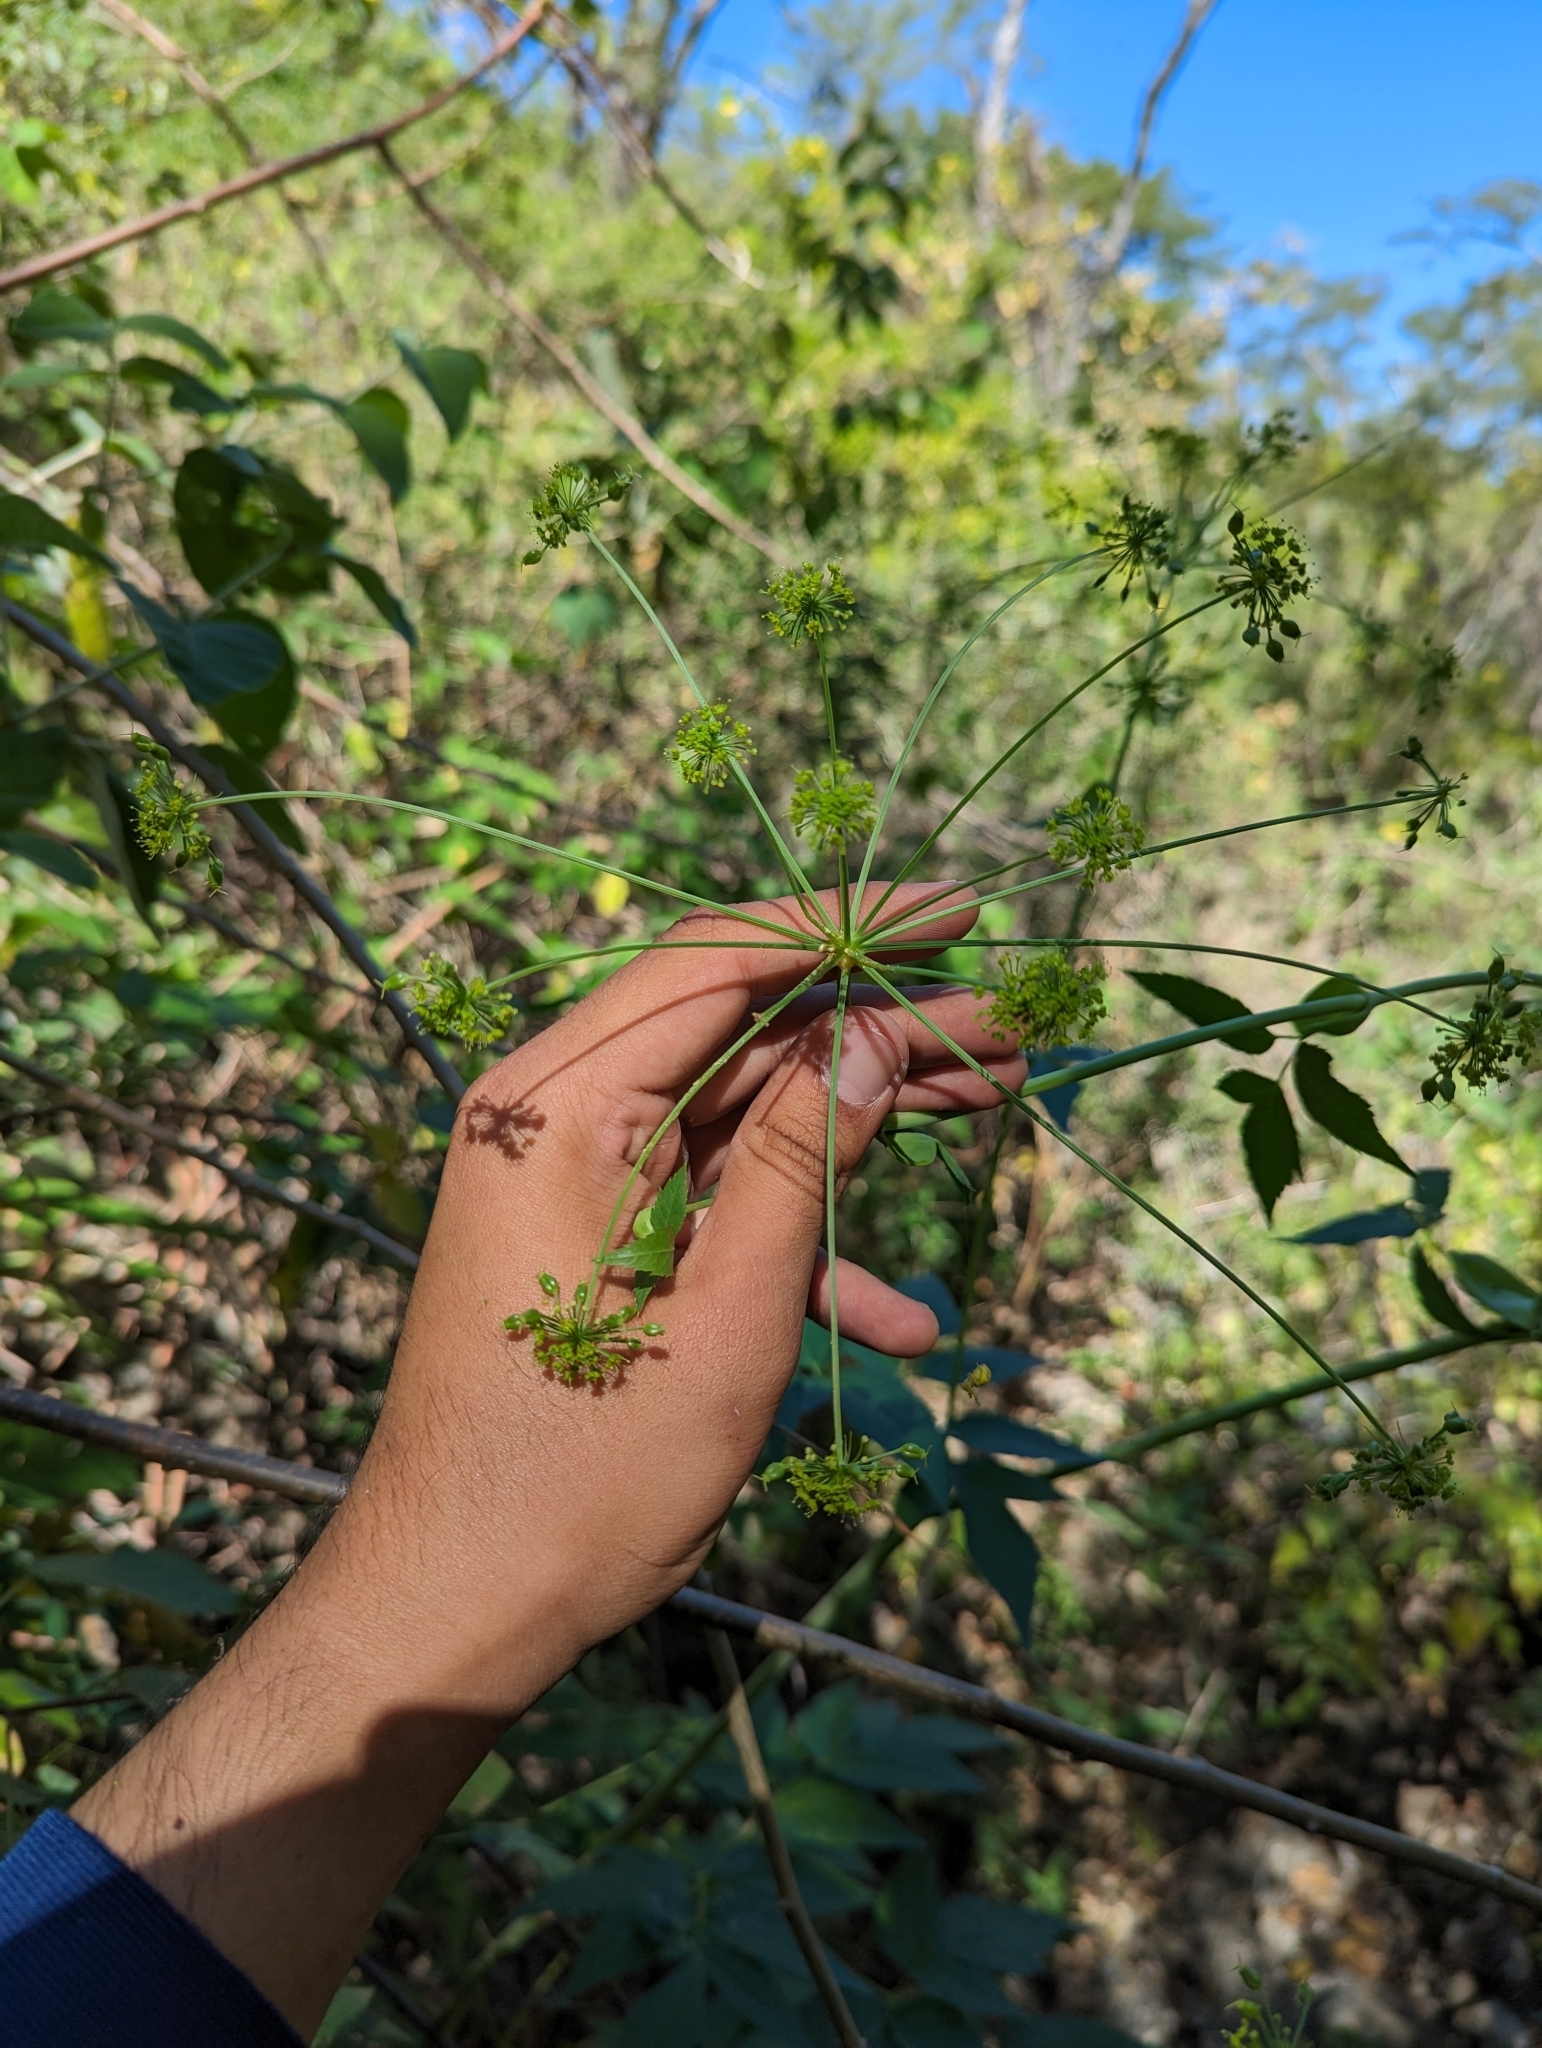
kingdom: Plantae
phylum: Tracheophyta
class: Magnoliopsida
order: Apiales
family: Apiaceae
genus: Arracacia
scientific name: Arracacia brandegeei
